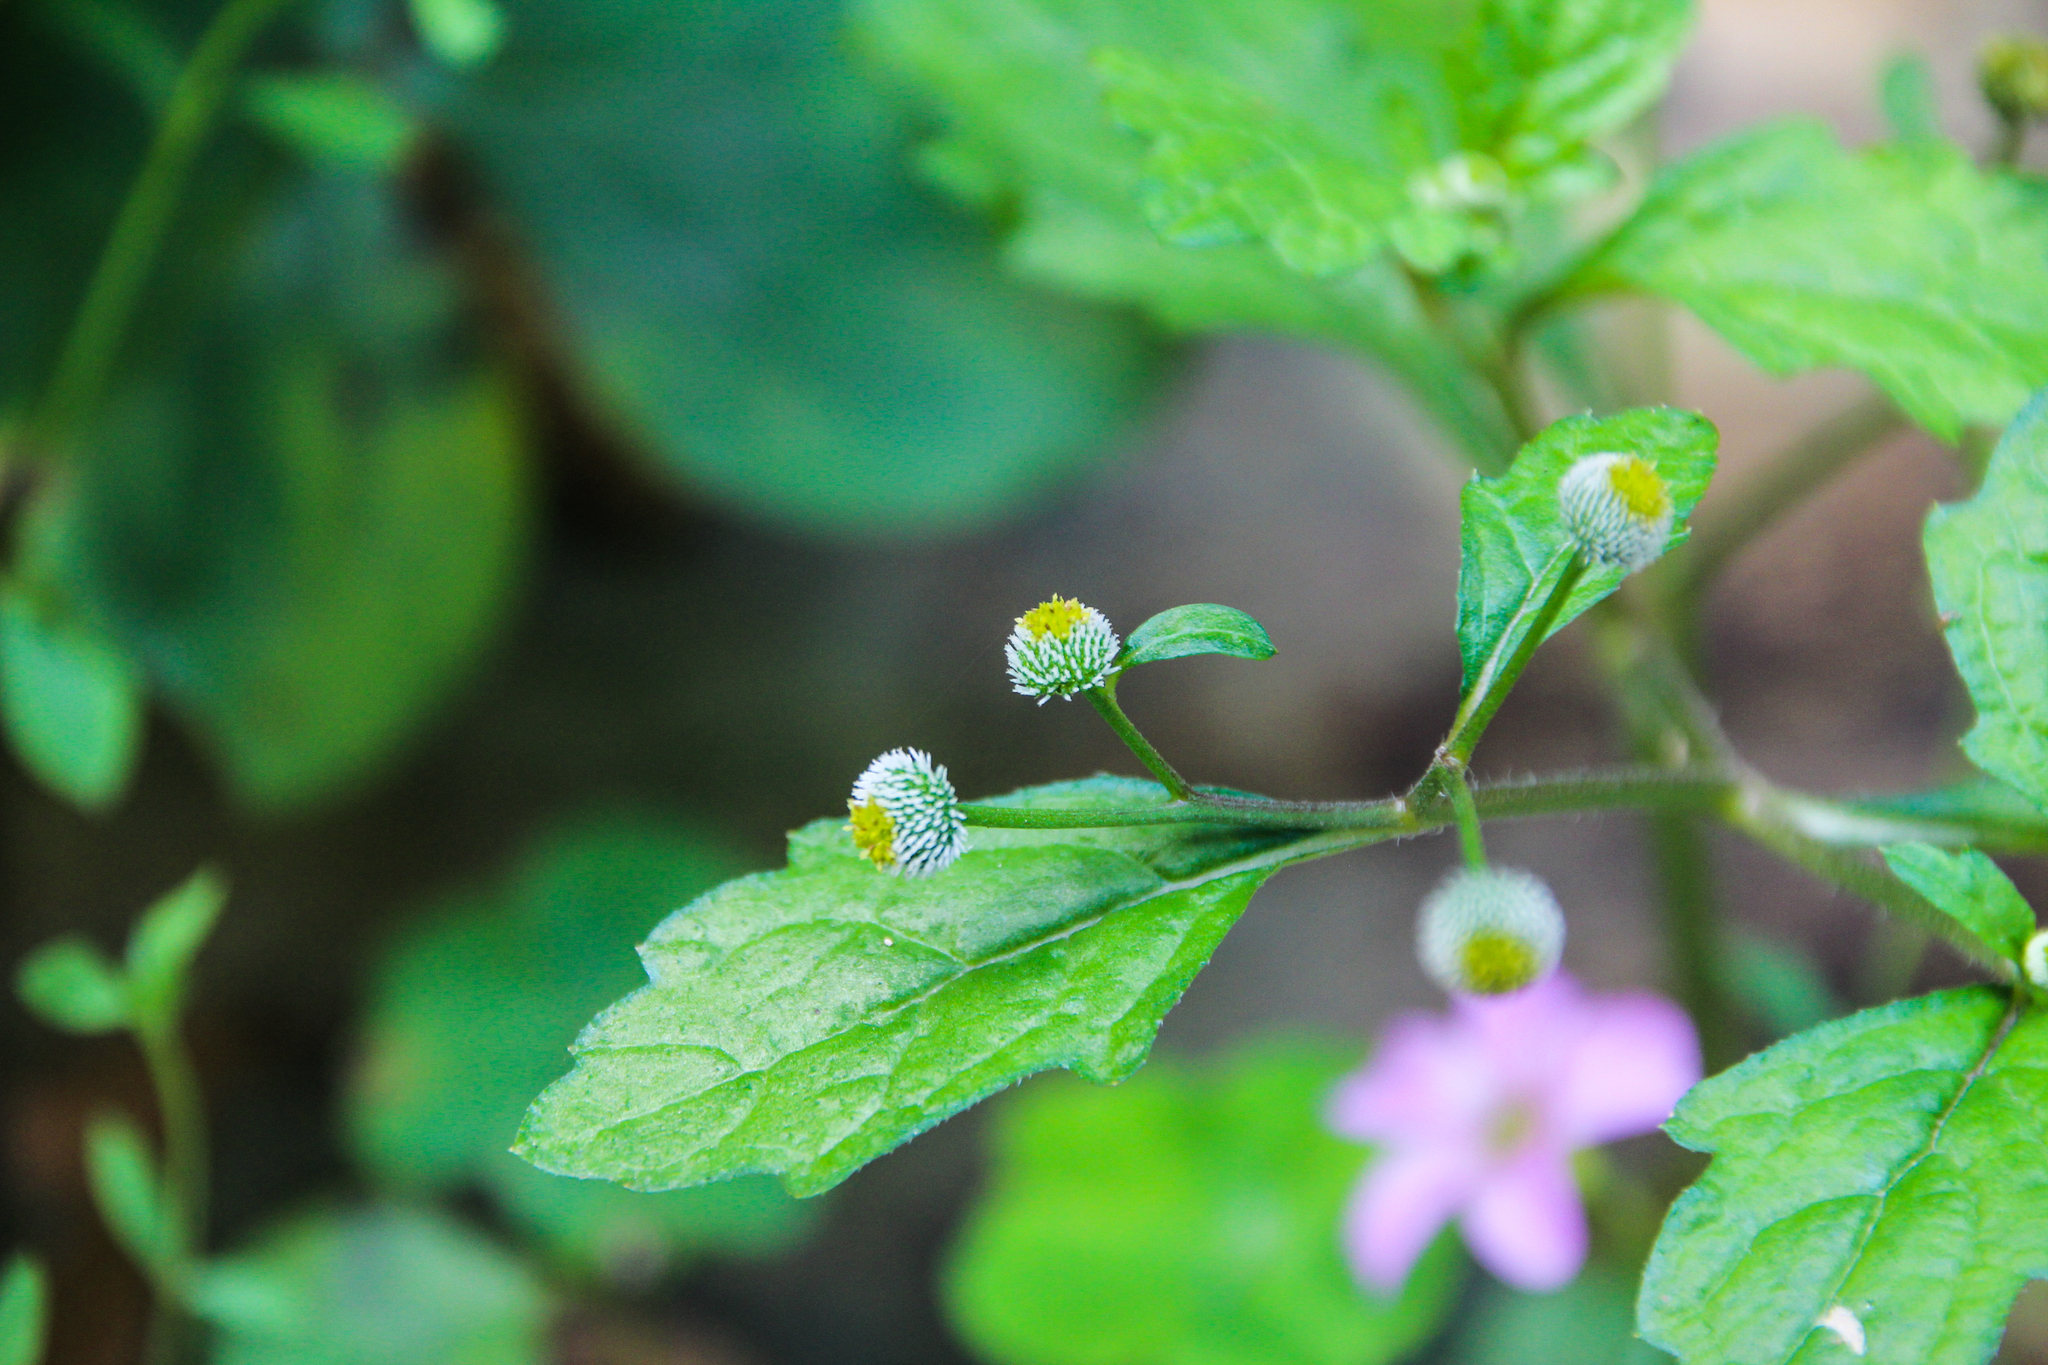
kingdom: Plantae
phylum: Tracheophyta
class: Magnoliopsida
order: Asterales
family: Asteraceae
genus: Dichrocephala
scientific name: Dichrocephala integrifolia
